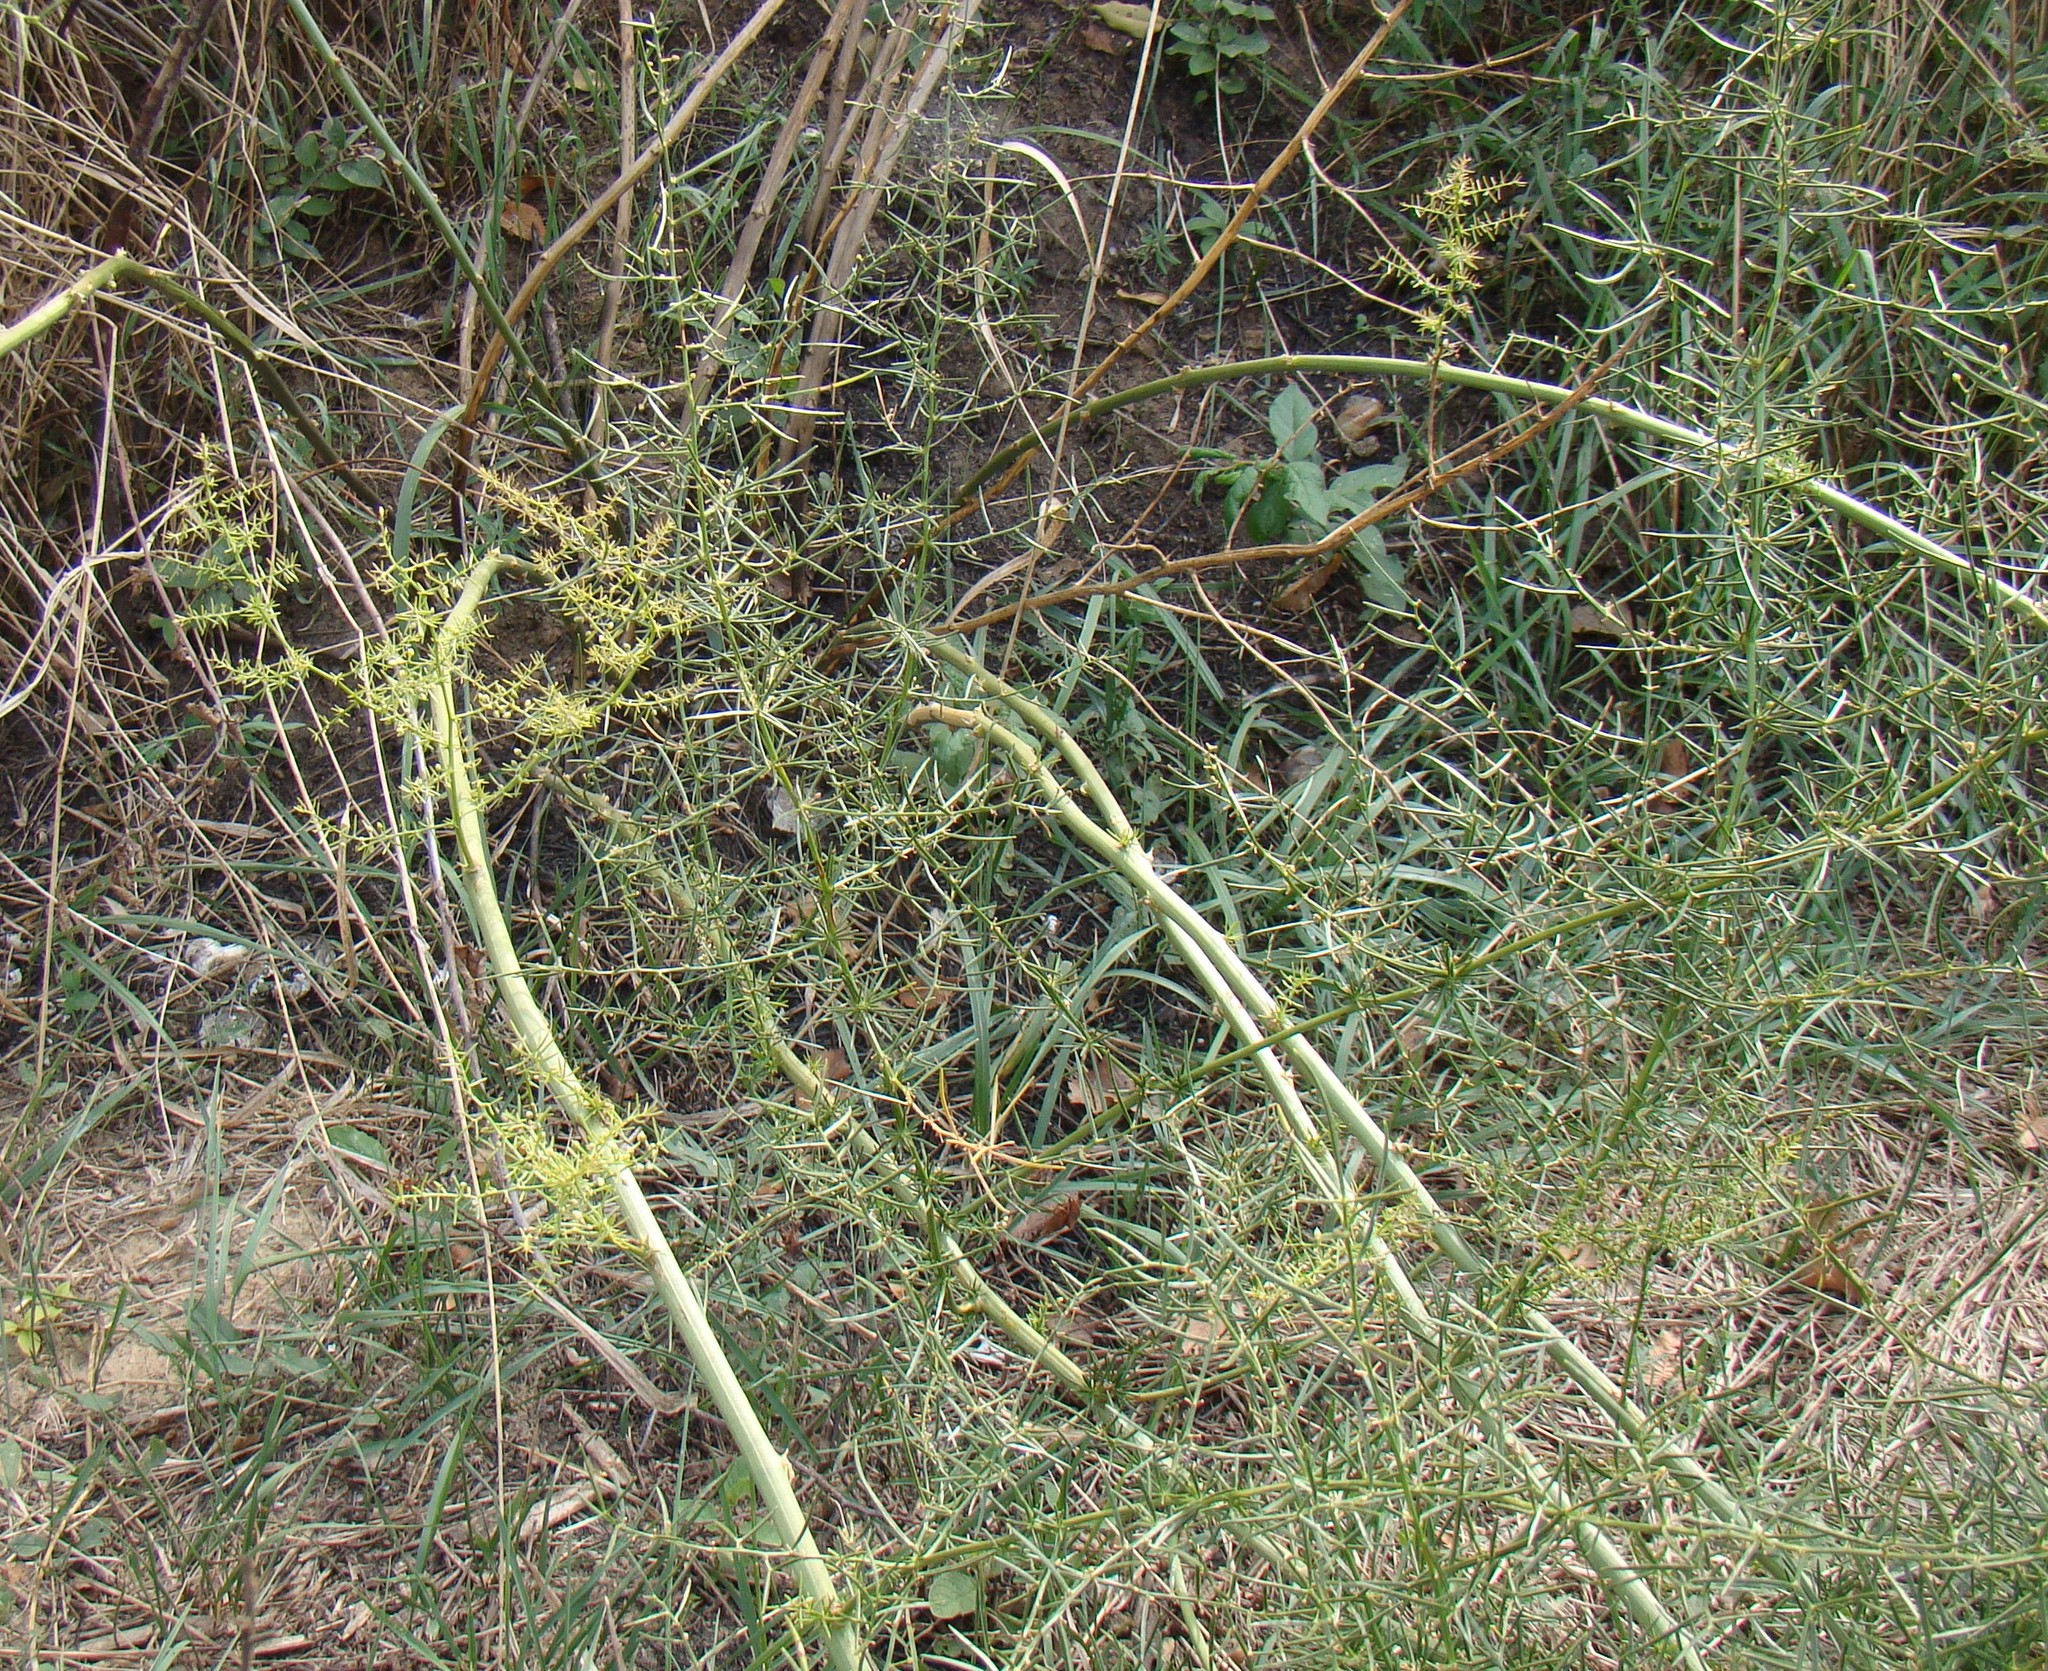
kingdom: Plantae
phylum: Tracheophyta
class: Liliopsida
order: Asparagales
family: Asparagaceae
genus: Asparagus
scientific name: Asparagus verticillatus
